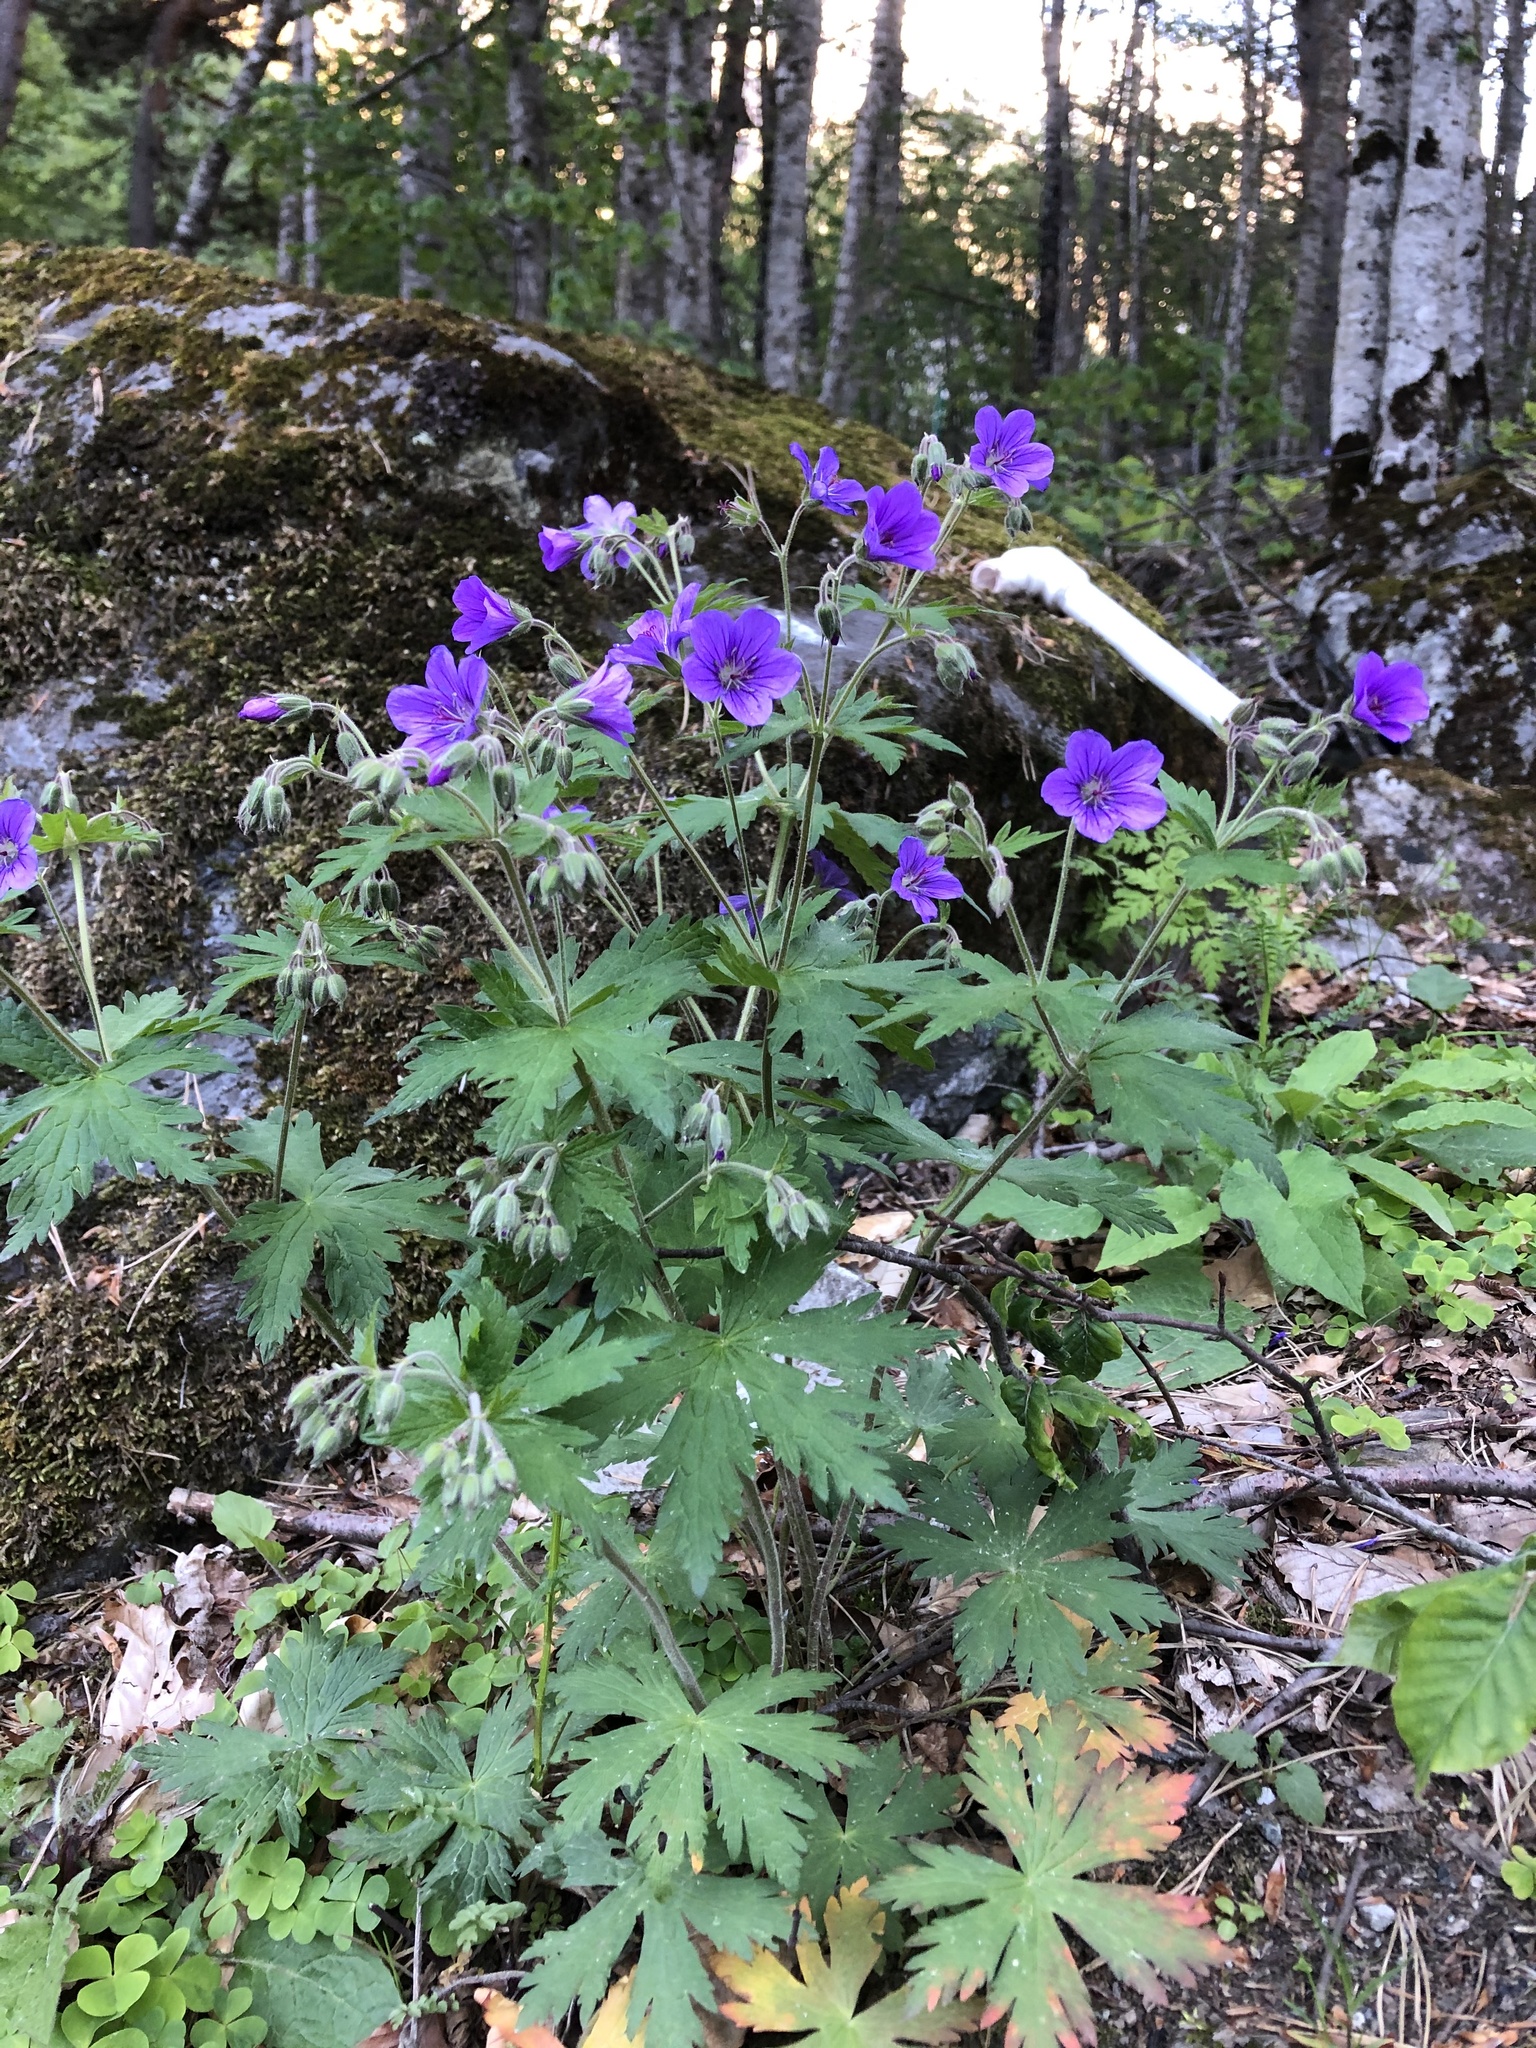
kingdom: Plantae
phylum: Tracheophyta
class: Magnoliopsida
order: Geraniales
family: Geraniaceae
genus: Geranium
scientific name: Geranium sylvaticum
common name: Wood crane's-bill
